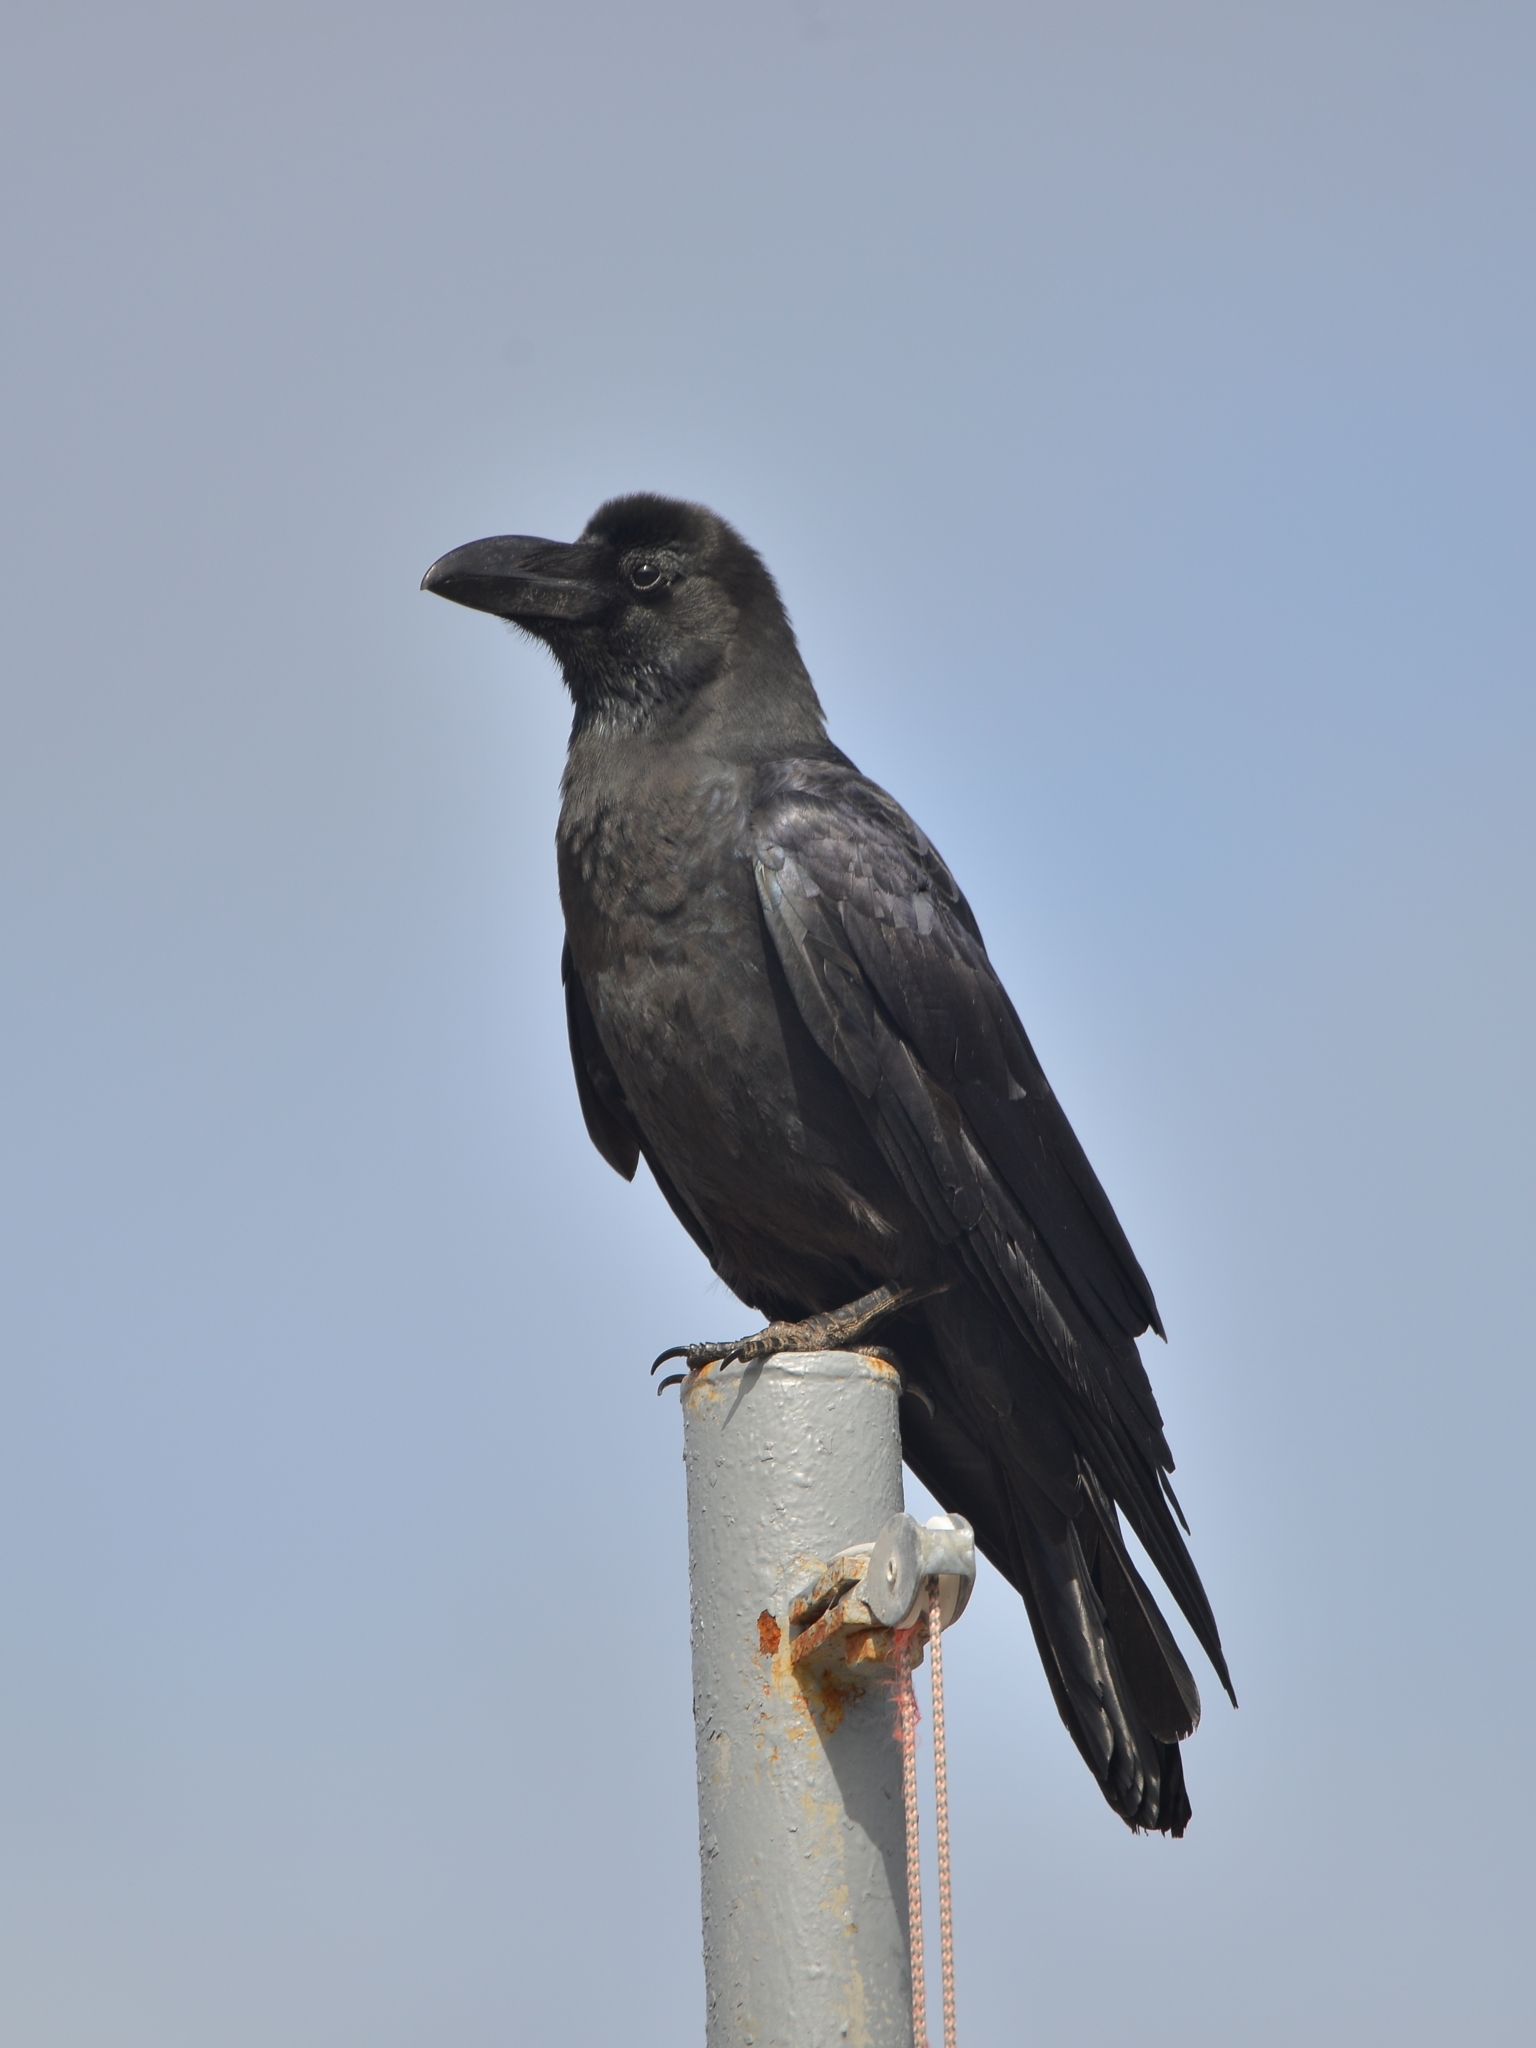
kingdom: Animalia
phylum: Chordata
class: Aves
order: Passeriformes
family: Corvidae
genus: Corvus
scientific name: Corvus macrorhynchos
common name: Large-billed crow
